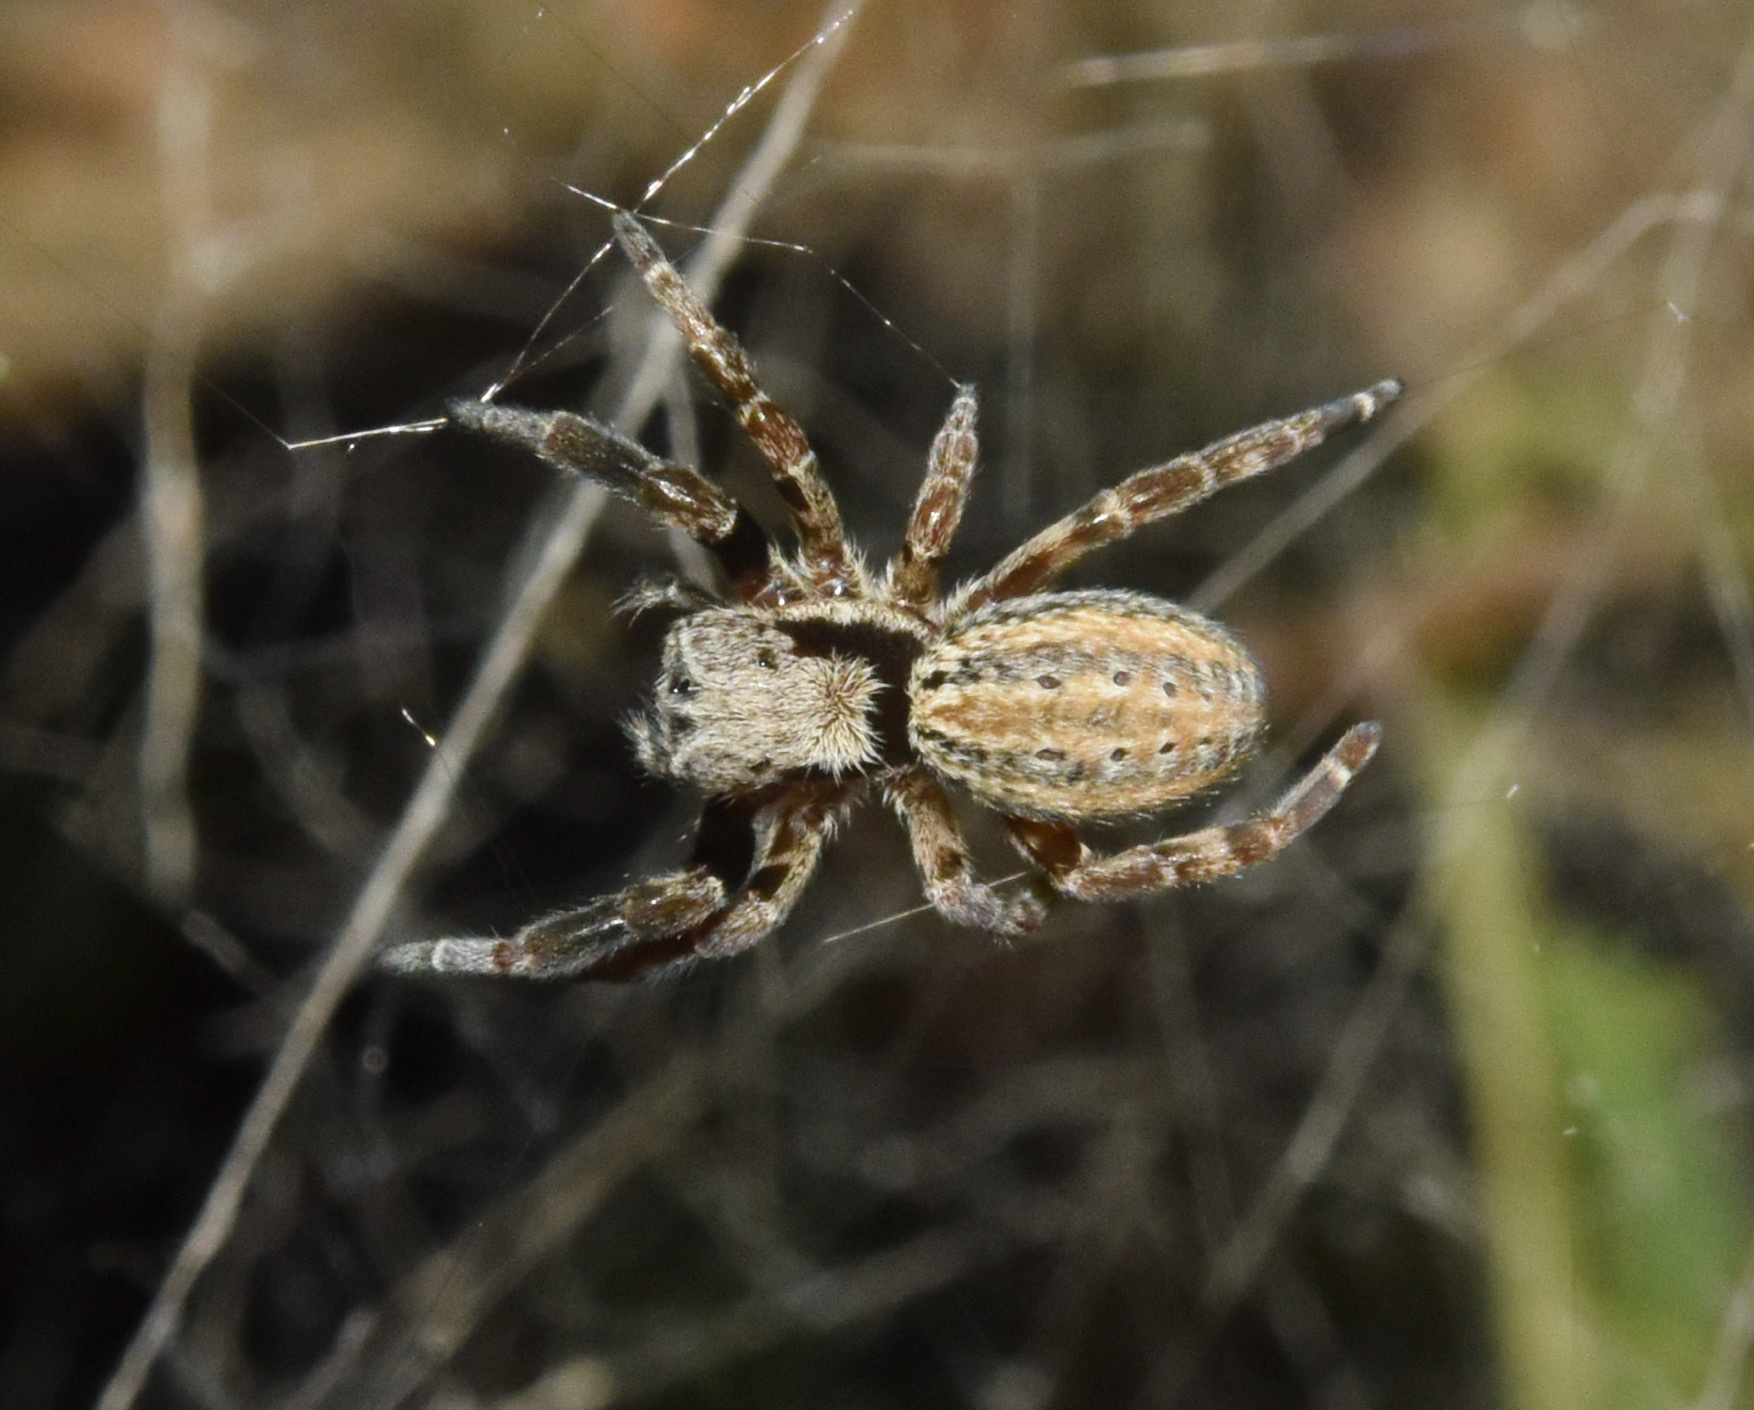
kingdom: Animalia
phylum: Arthropoda
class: Arachnida
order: Araneae
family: Eresidae
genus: Stegodyphus
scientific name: Stegodyphus mimosarum
